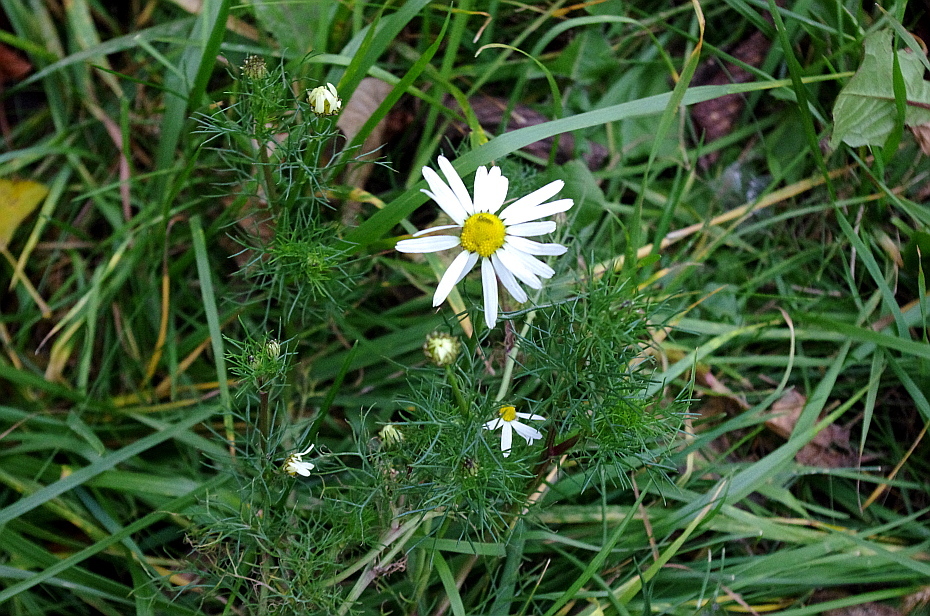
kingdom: Plantae
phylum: Tracheophyta
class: Magnoliopsida
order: Asterales
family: Asteraceae
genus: Tripleurospermum
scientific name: Tripleurospermum inodorum
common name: Scentless mayweed
